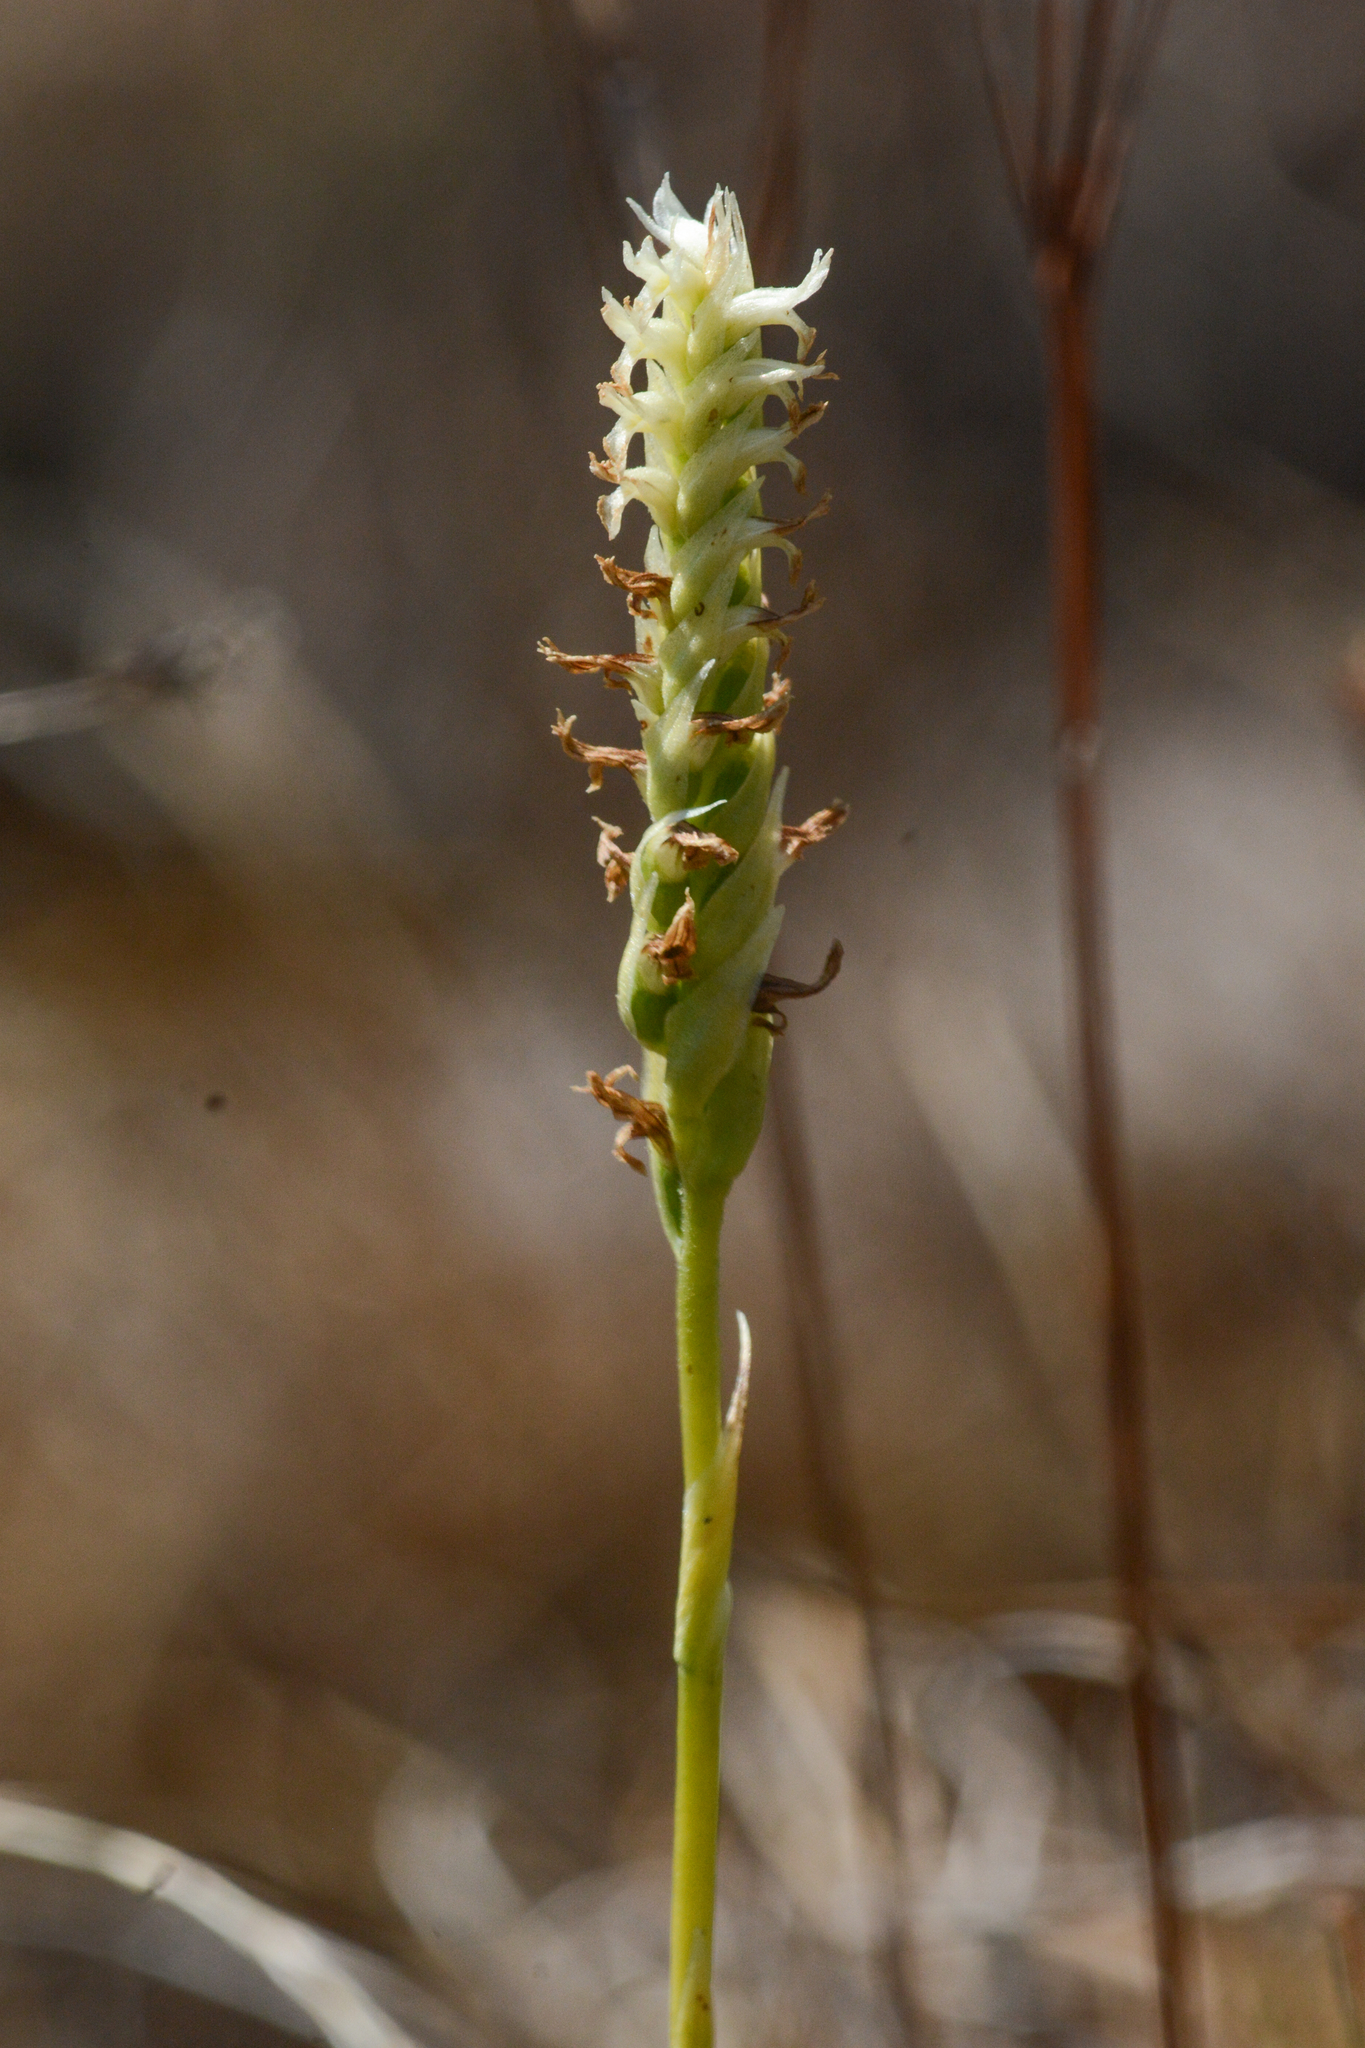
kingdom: Plantae
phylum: Tracheophyta
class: Liliopsida
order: Asparagales
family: Orchidaceae
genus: Spiranthes
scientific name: Spiranthes romanzoffiana
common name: Irish lady's-tresses
